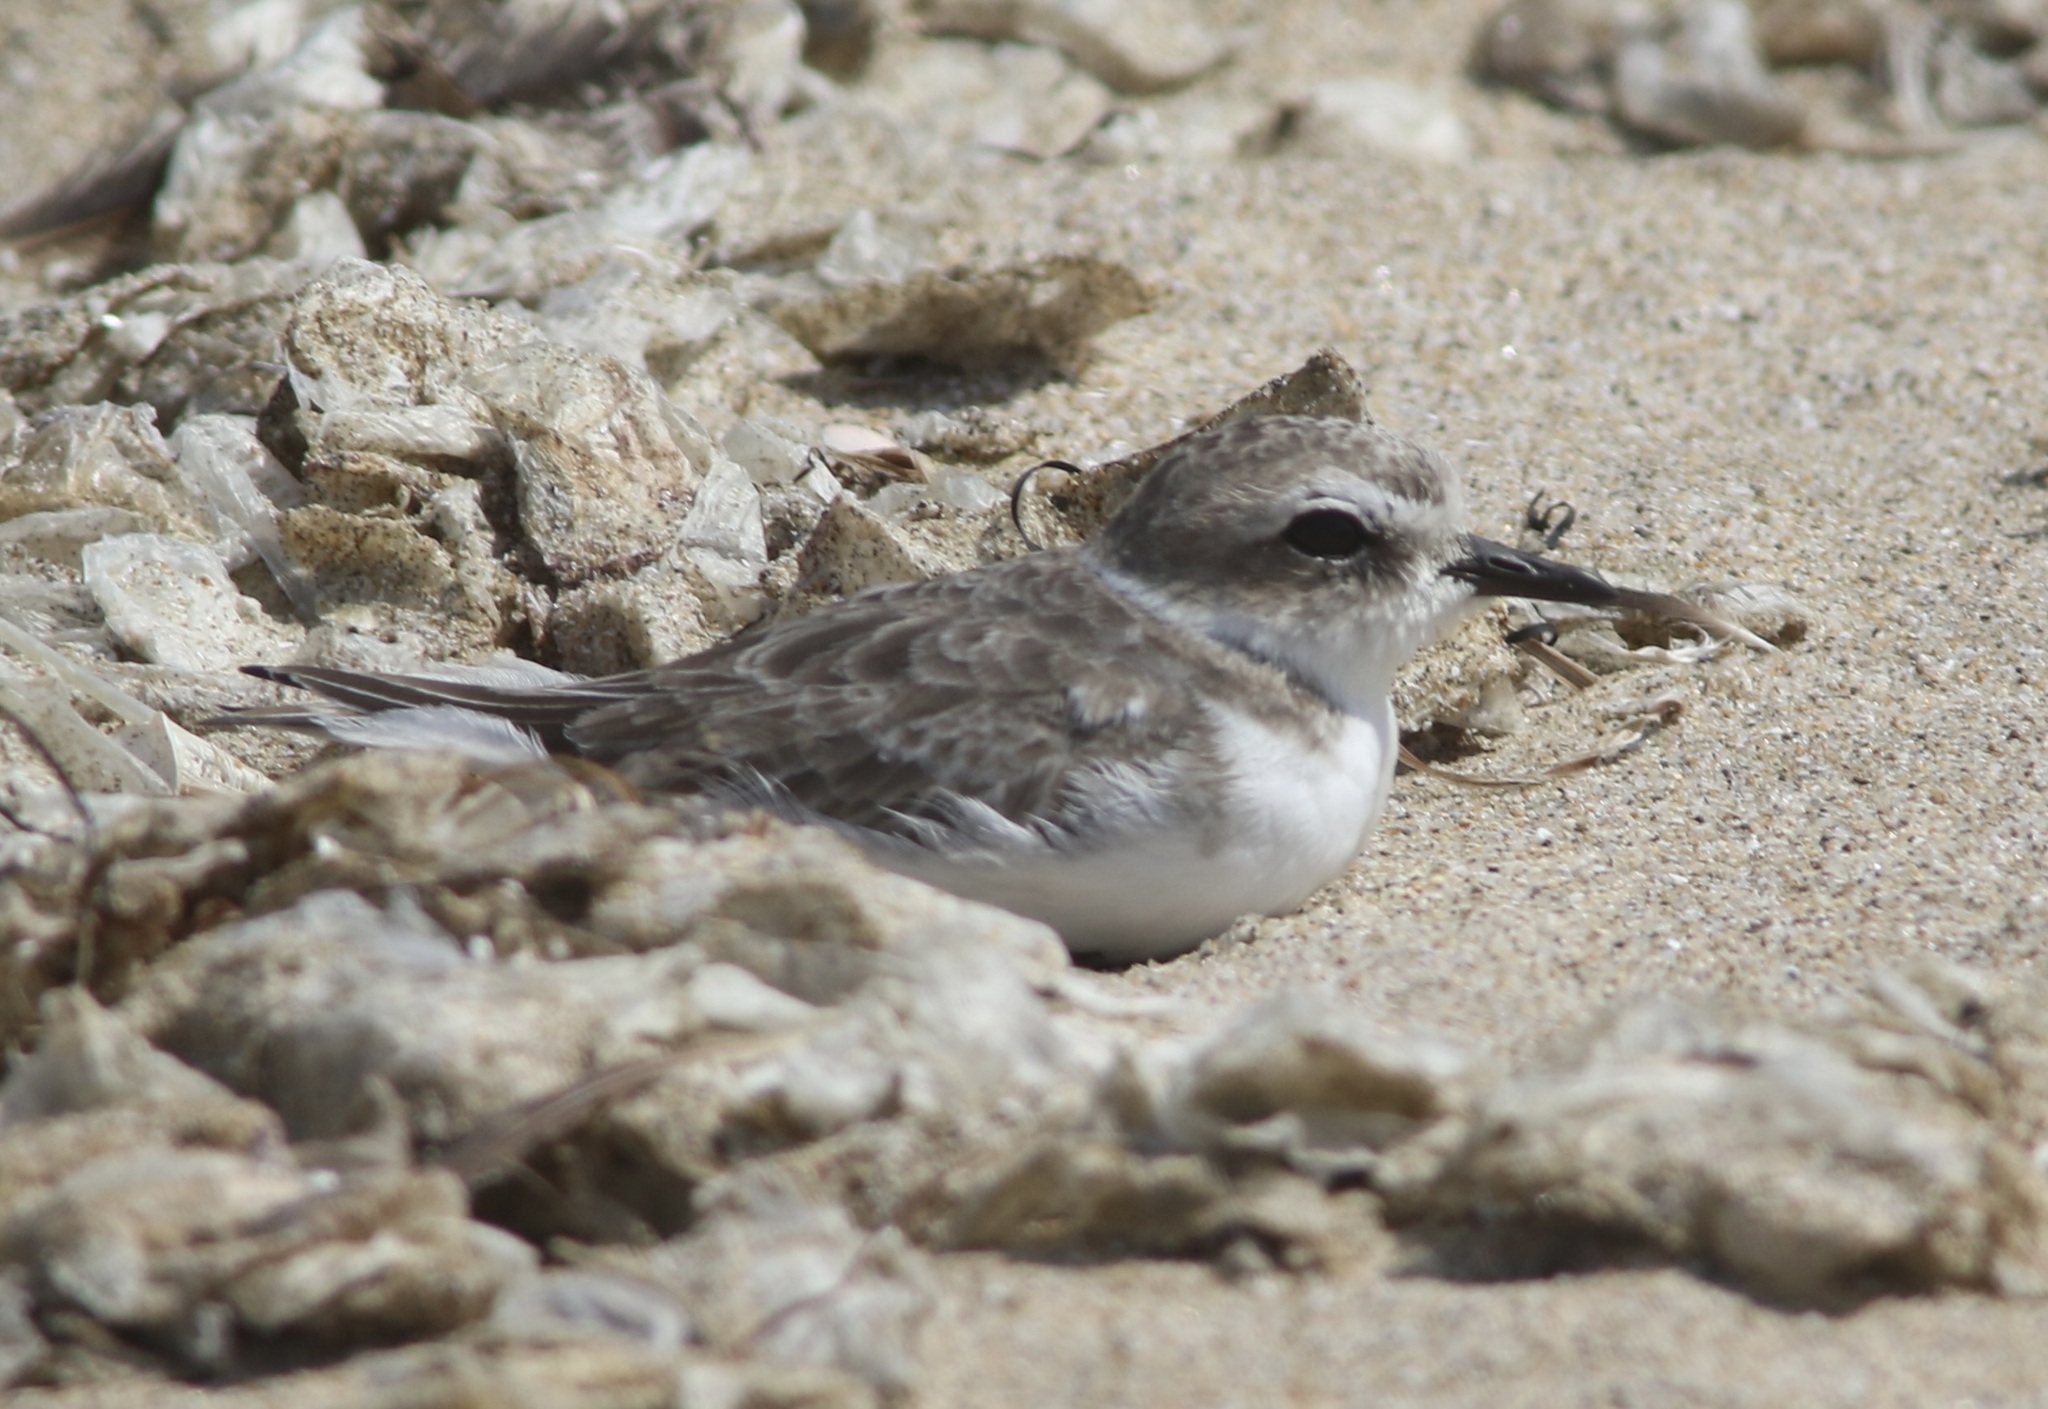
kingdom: Animalia
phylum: Chordata
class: Aves
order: Charadriiformes
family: Charadriidae
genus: Anarhynchus
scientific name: Anarhynchus
